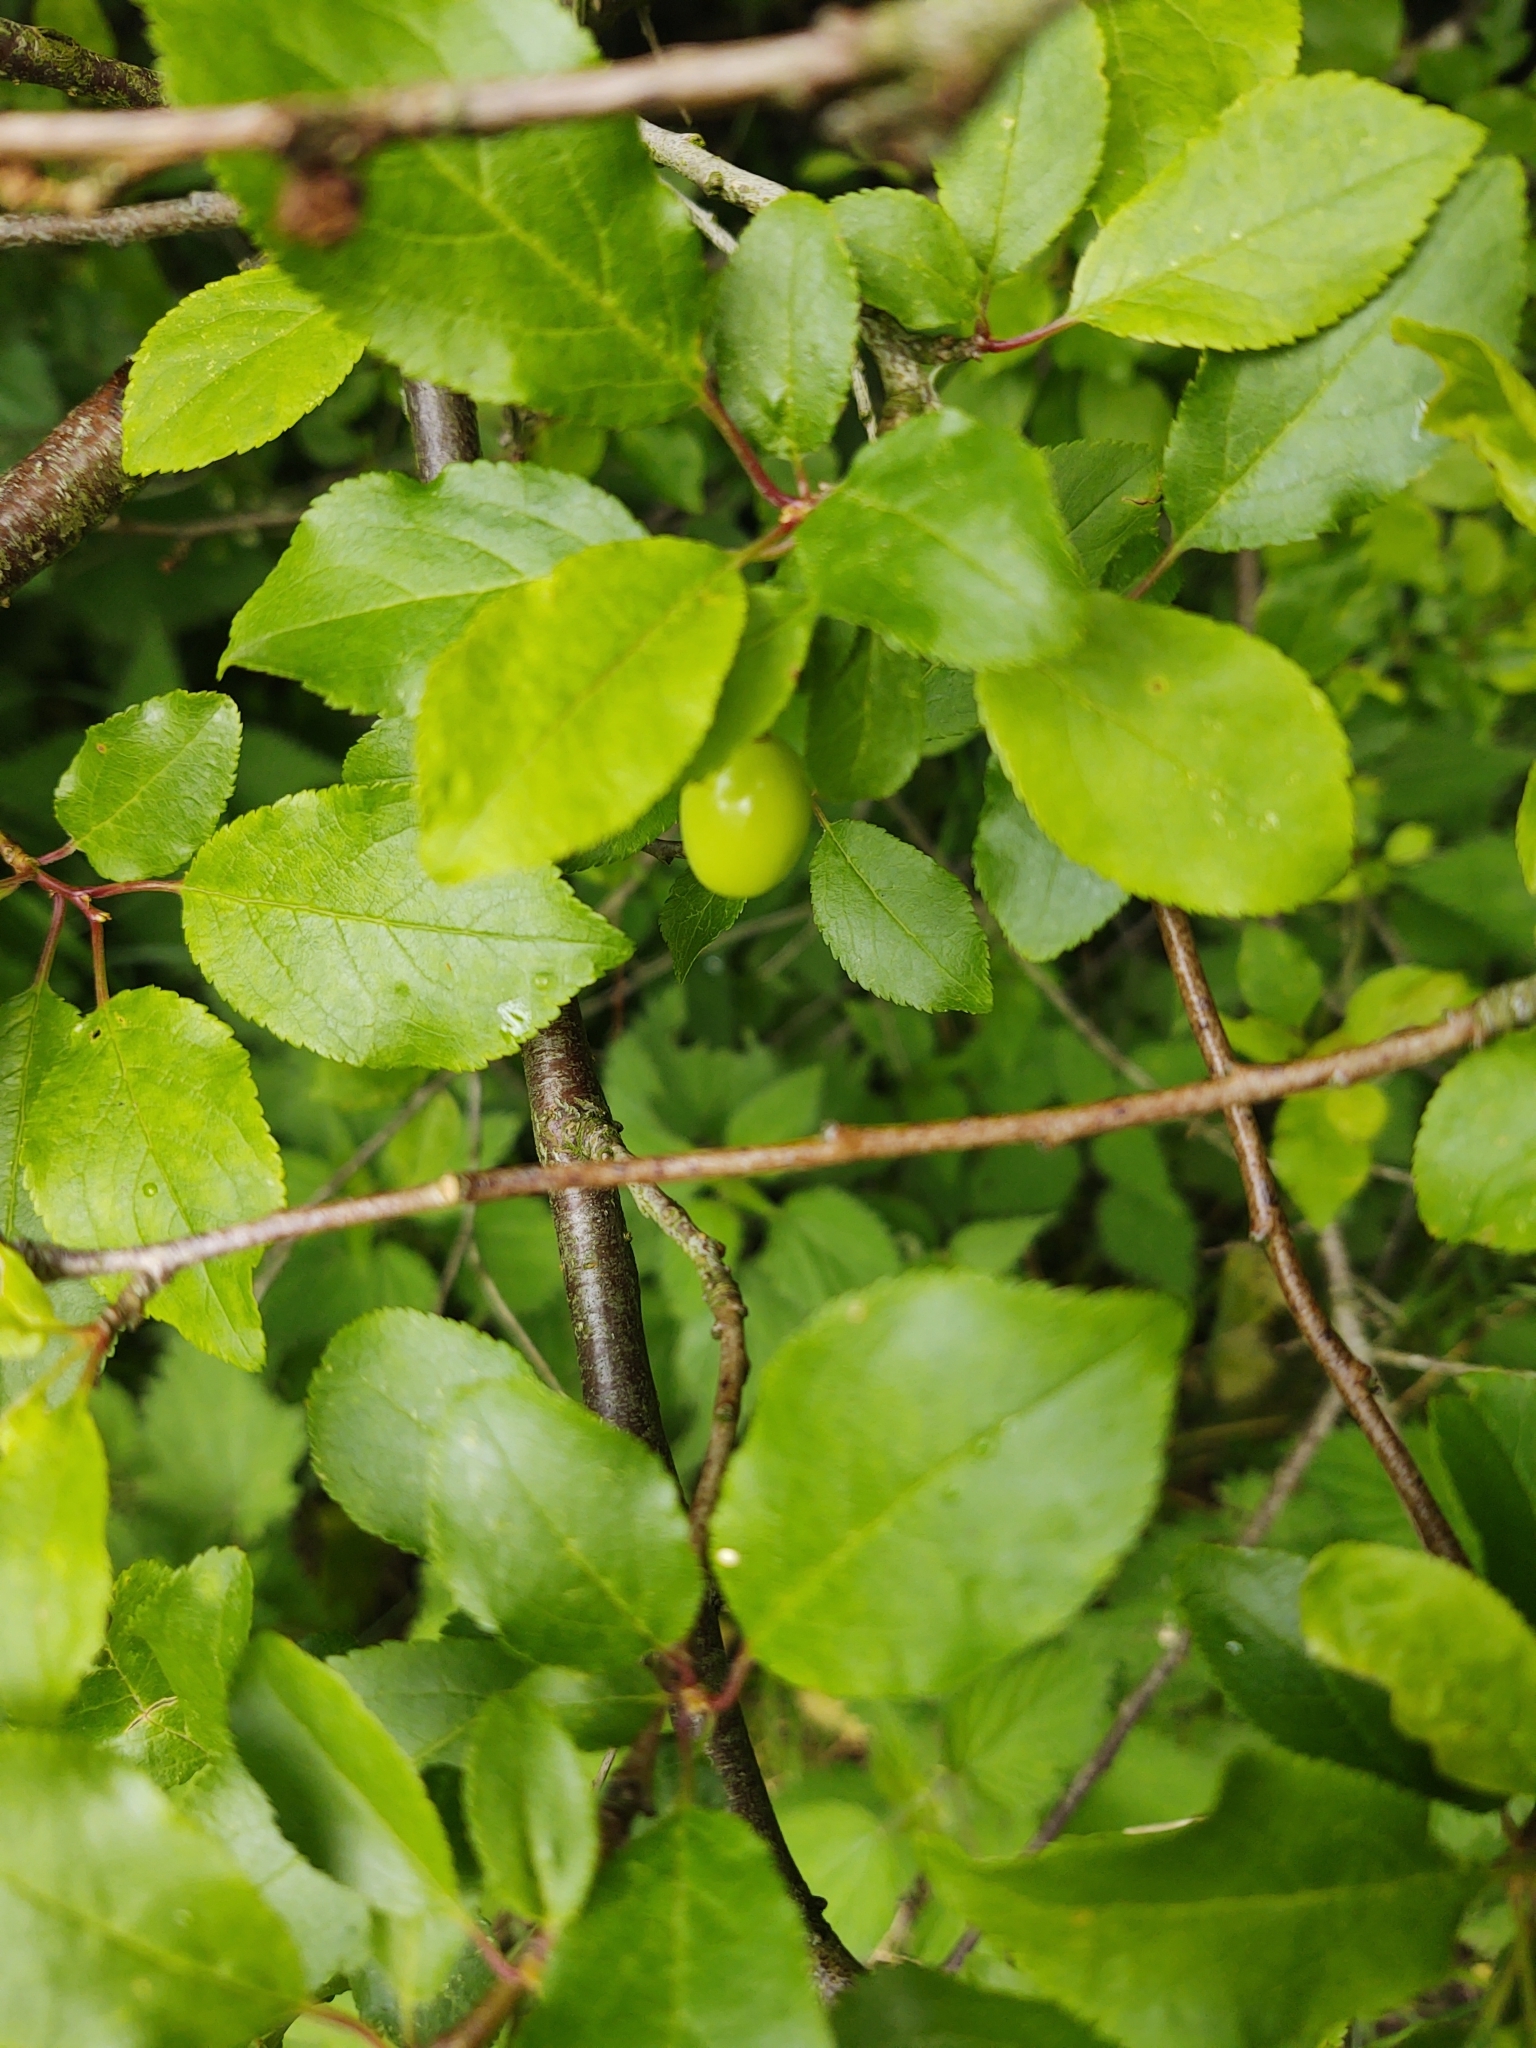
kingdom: Plantae
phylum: Tracheophyta
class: Magnoliopsida
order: Rosales
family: Rosaceae
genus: Prunus
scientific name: Prunus cerasifera
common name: Cherry plum
